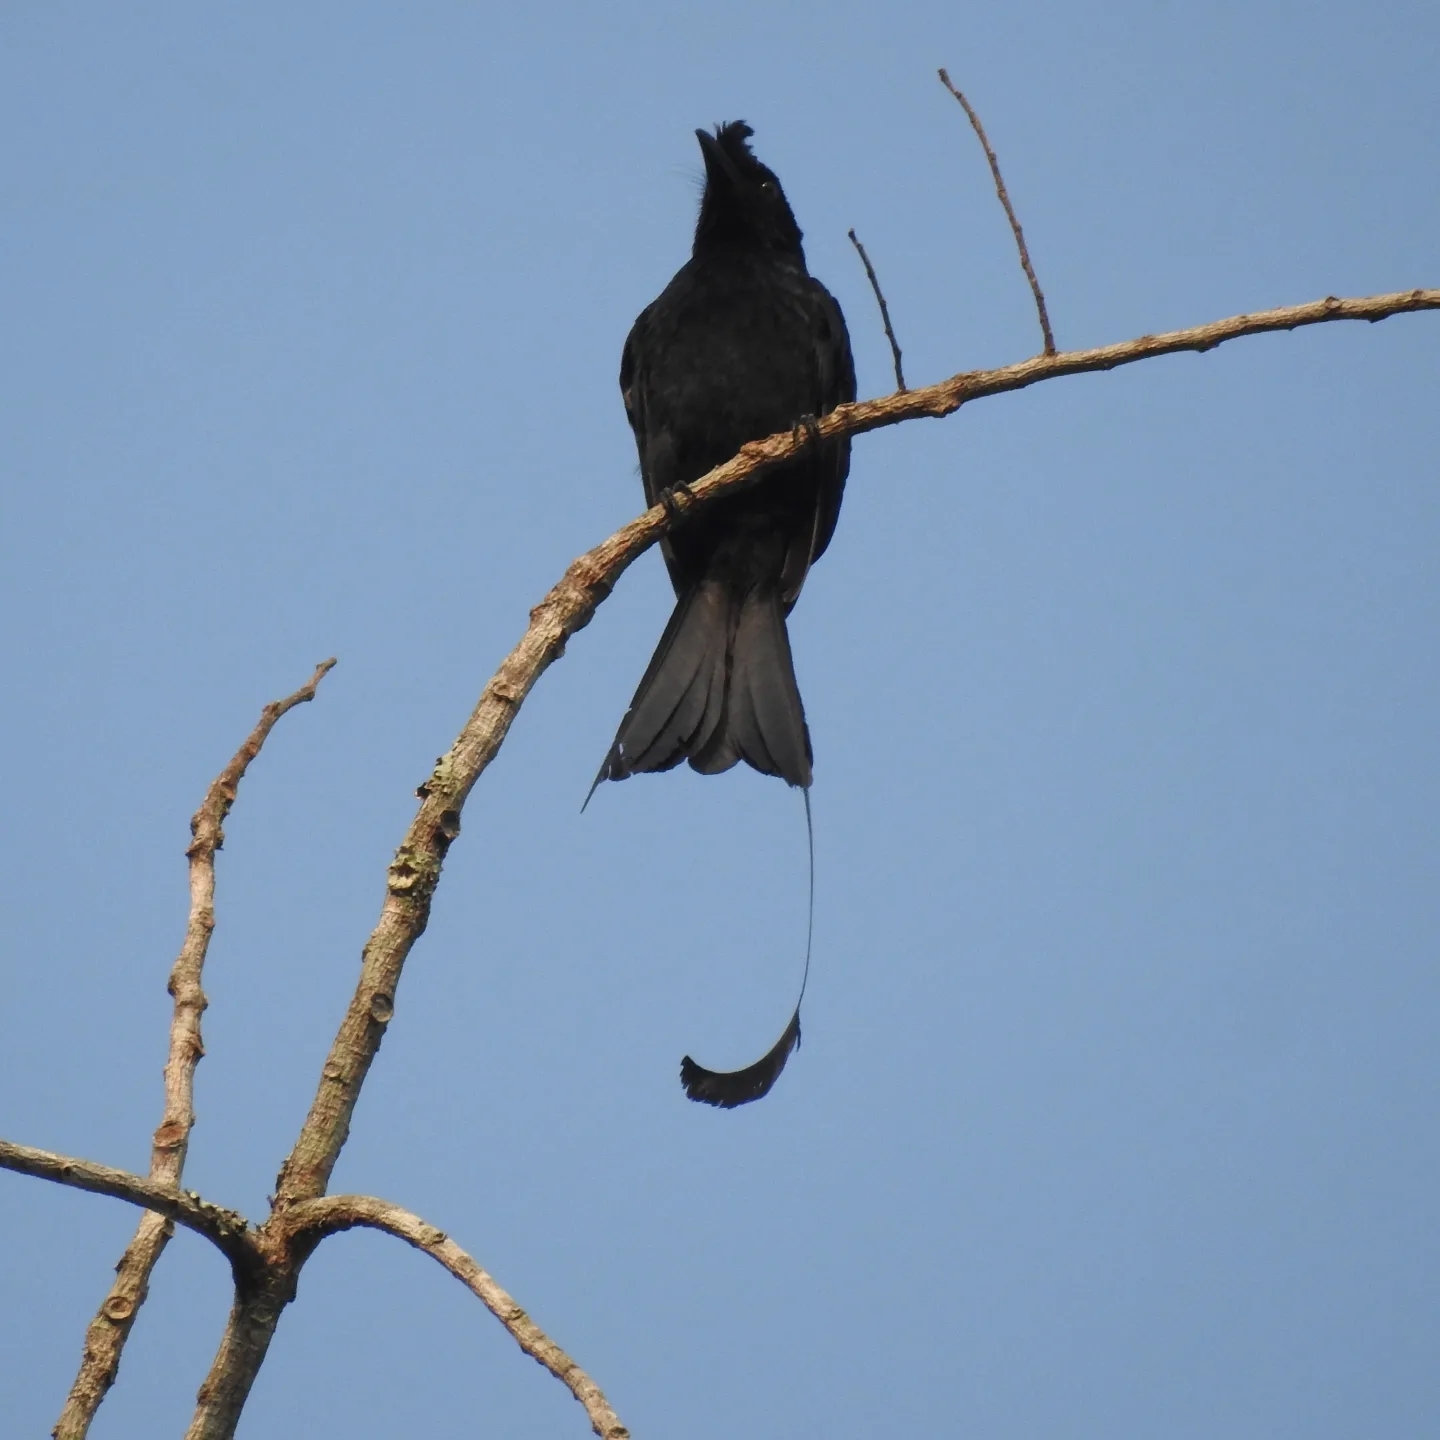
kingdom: Animalia
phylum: Chordata
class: Aves
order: Passeriformes
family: Dicruridae
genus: Dicrurus
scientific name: Dicrurus paradiseus
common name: Greater racket-tailed drongo
